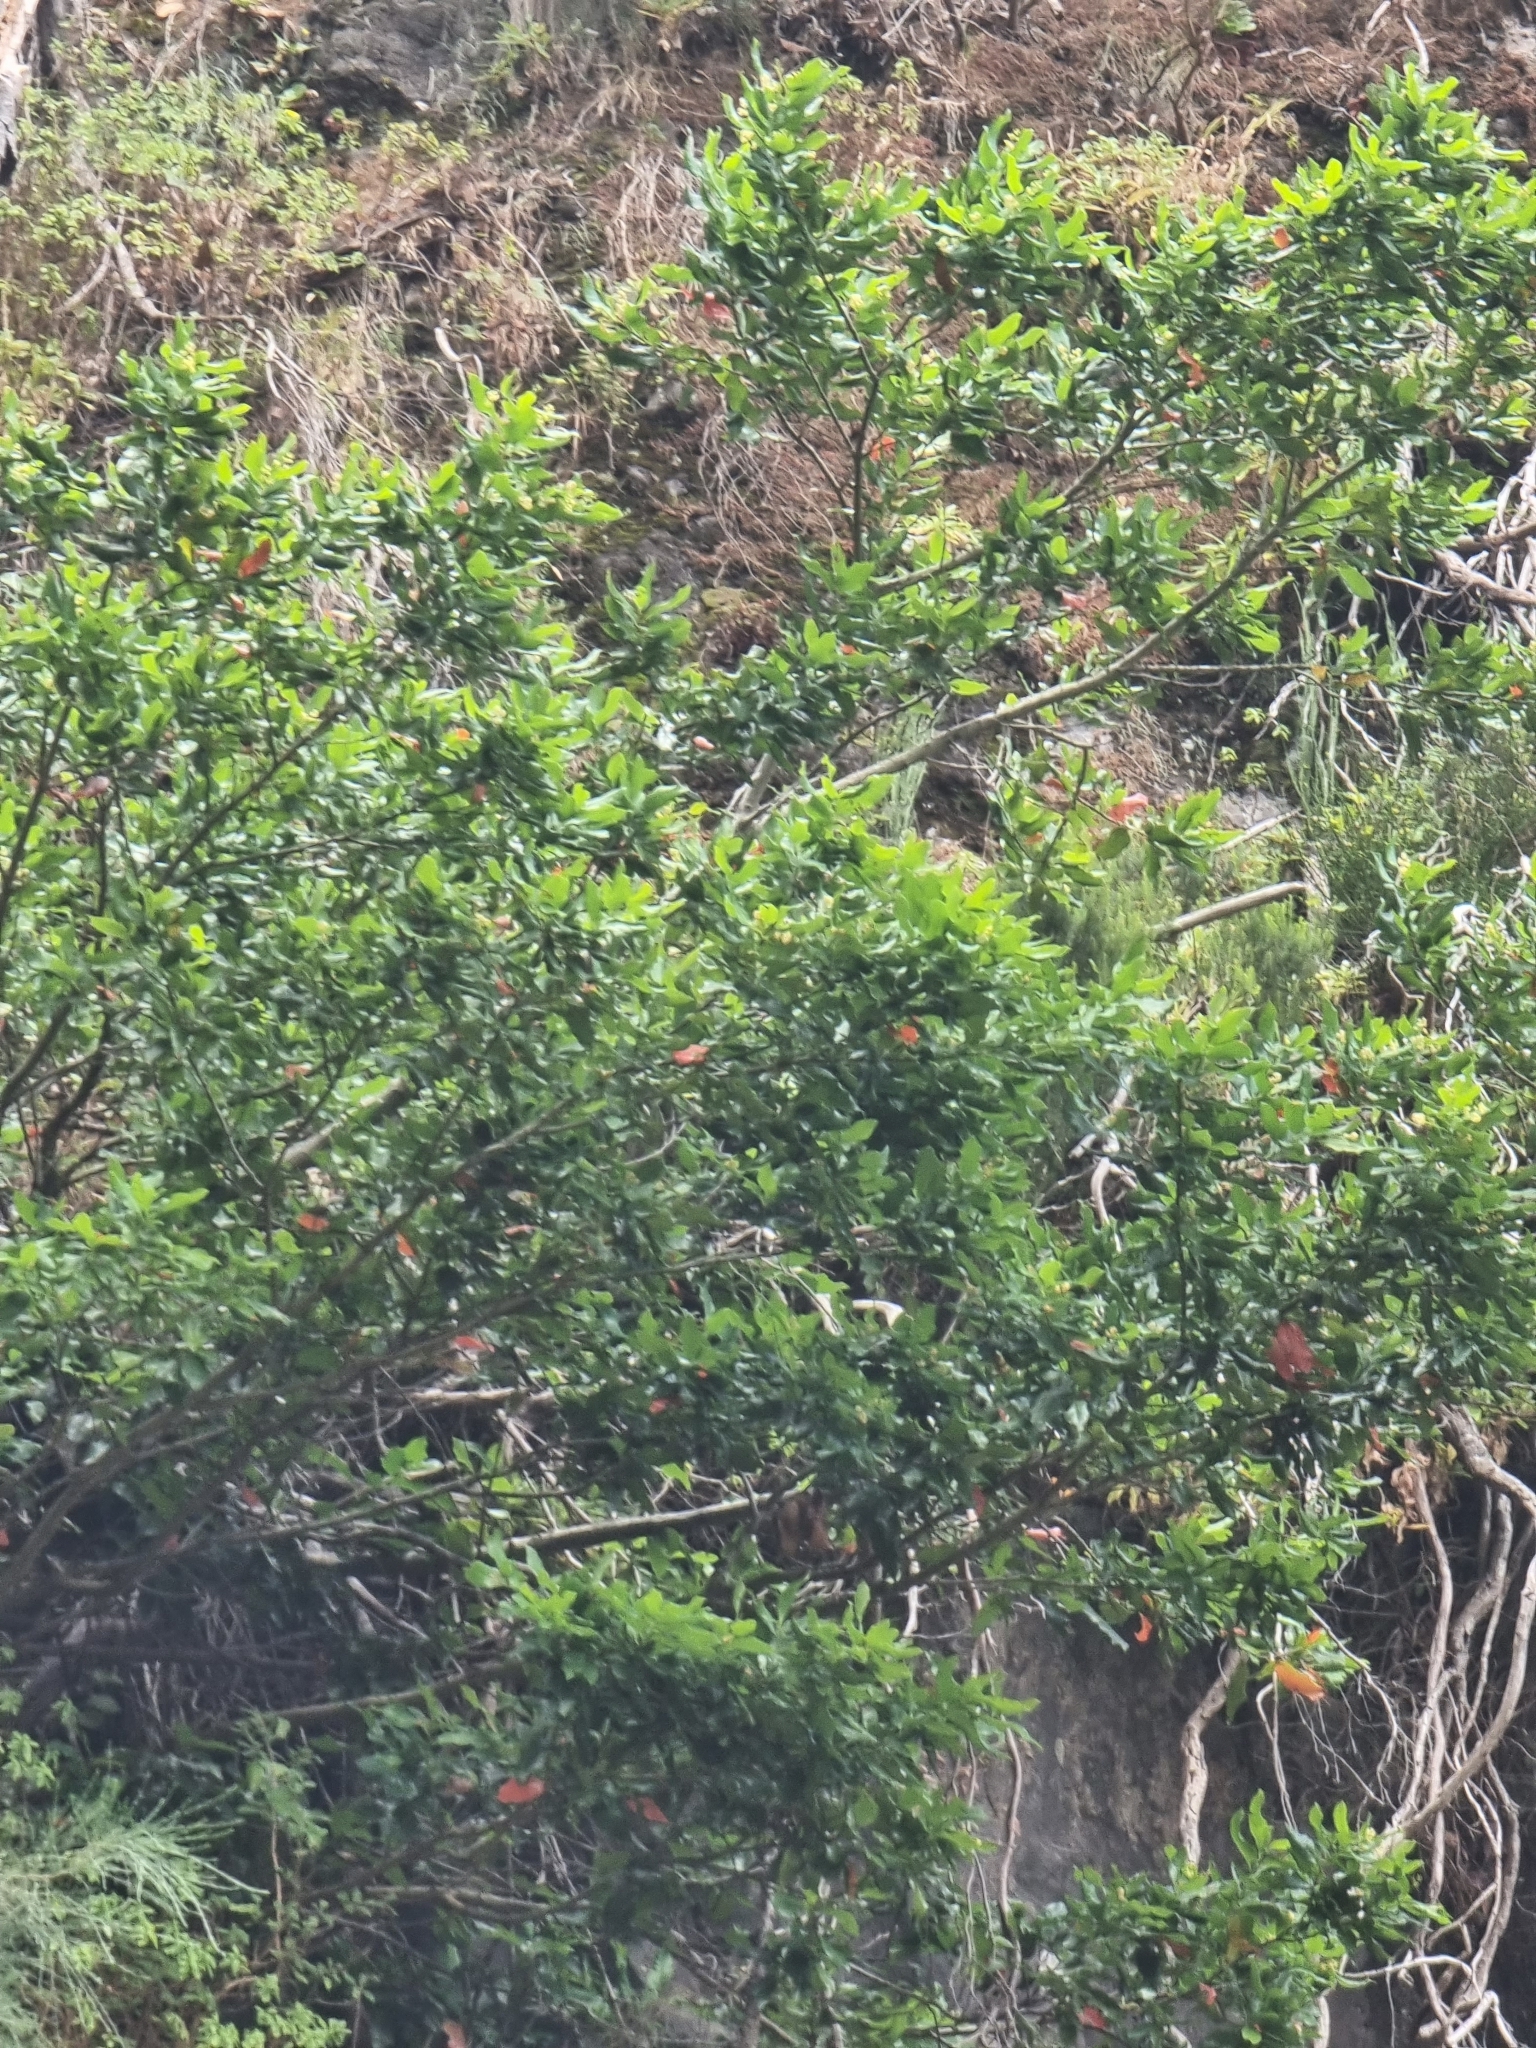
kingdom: Plantae
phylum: Tracheophyta
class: Magnoliopsida
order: Laurales
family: Lauraceae
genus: Mespilodaphne
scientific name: Mespilodaphne foetens
